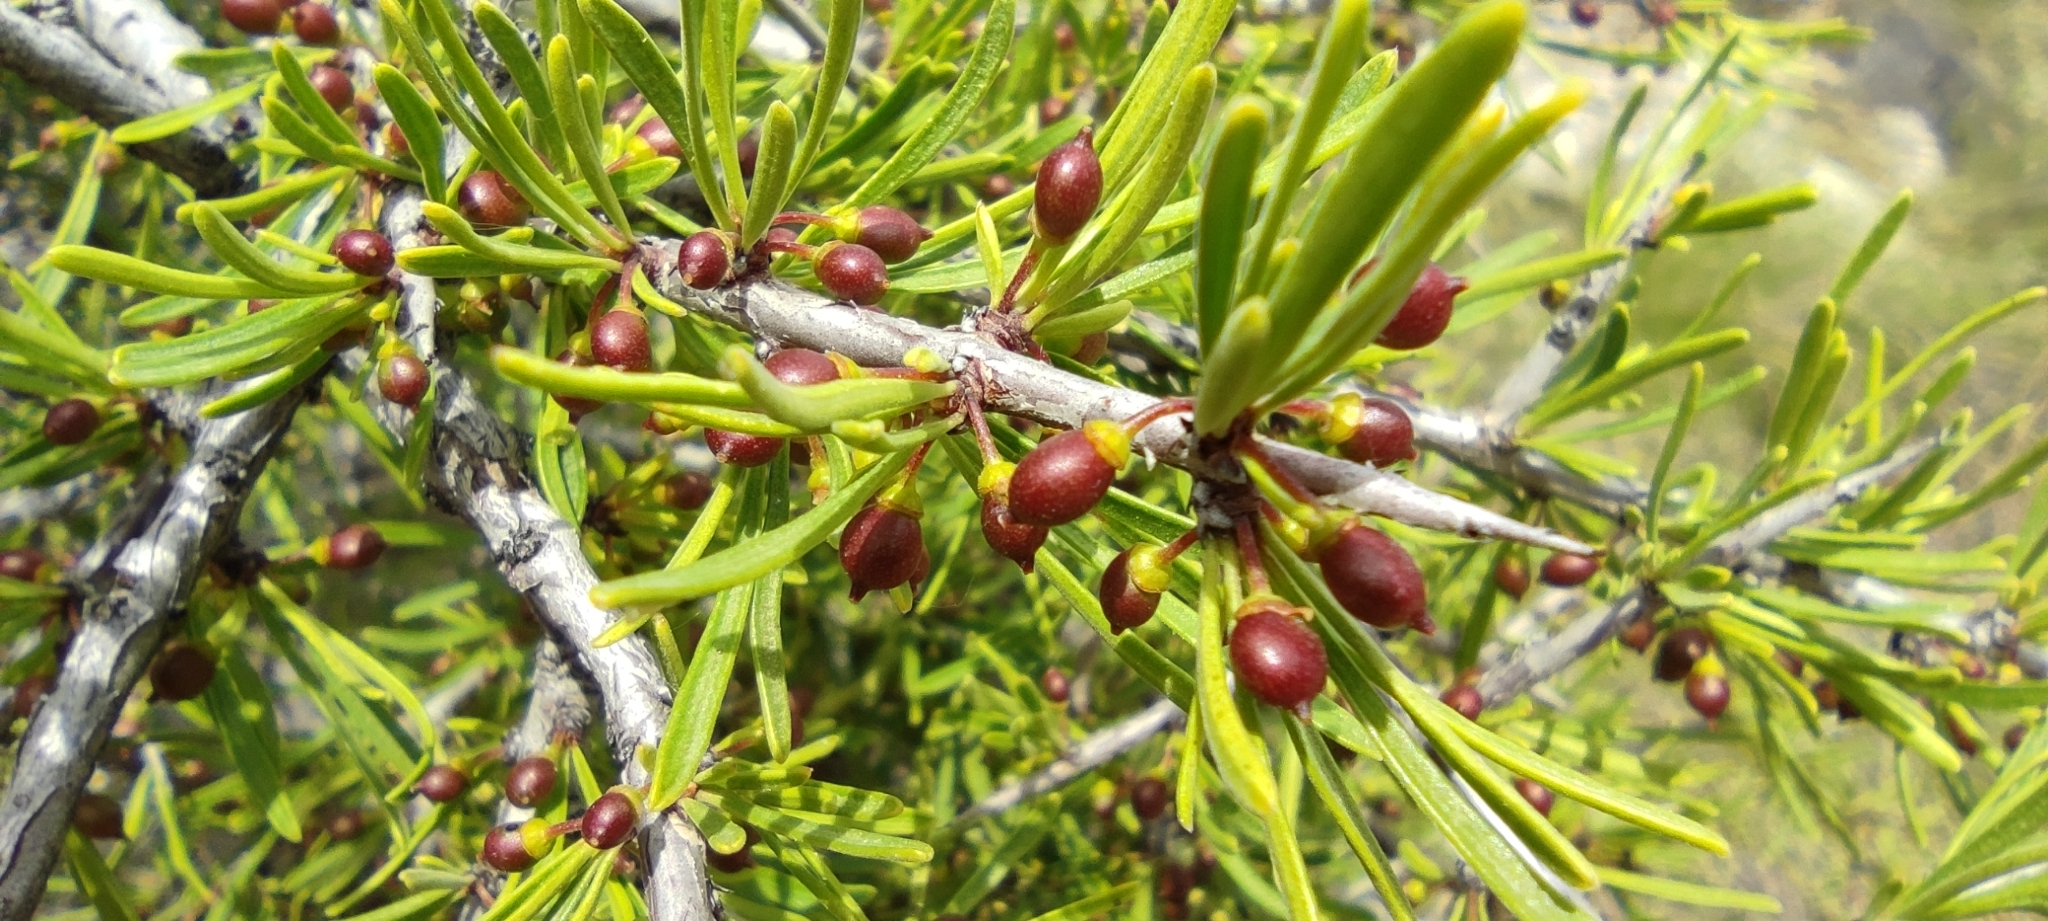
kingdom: Plantae
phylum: Tracheophyta
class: Magnoliopsida
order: Rosales
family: Rhamnaceae
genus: Rhamnus
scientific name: Rhamnus lycioides
